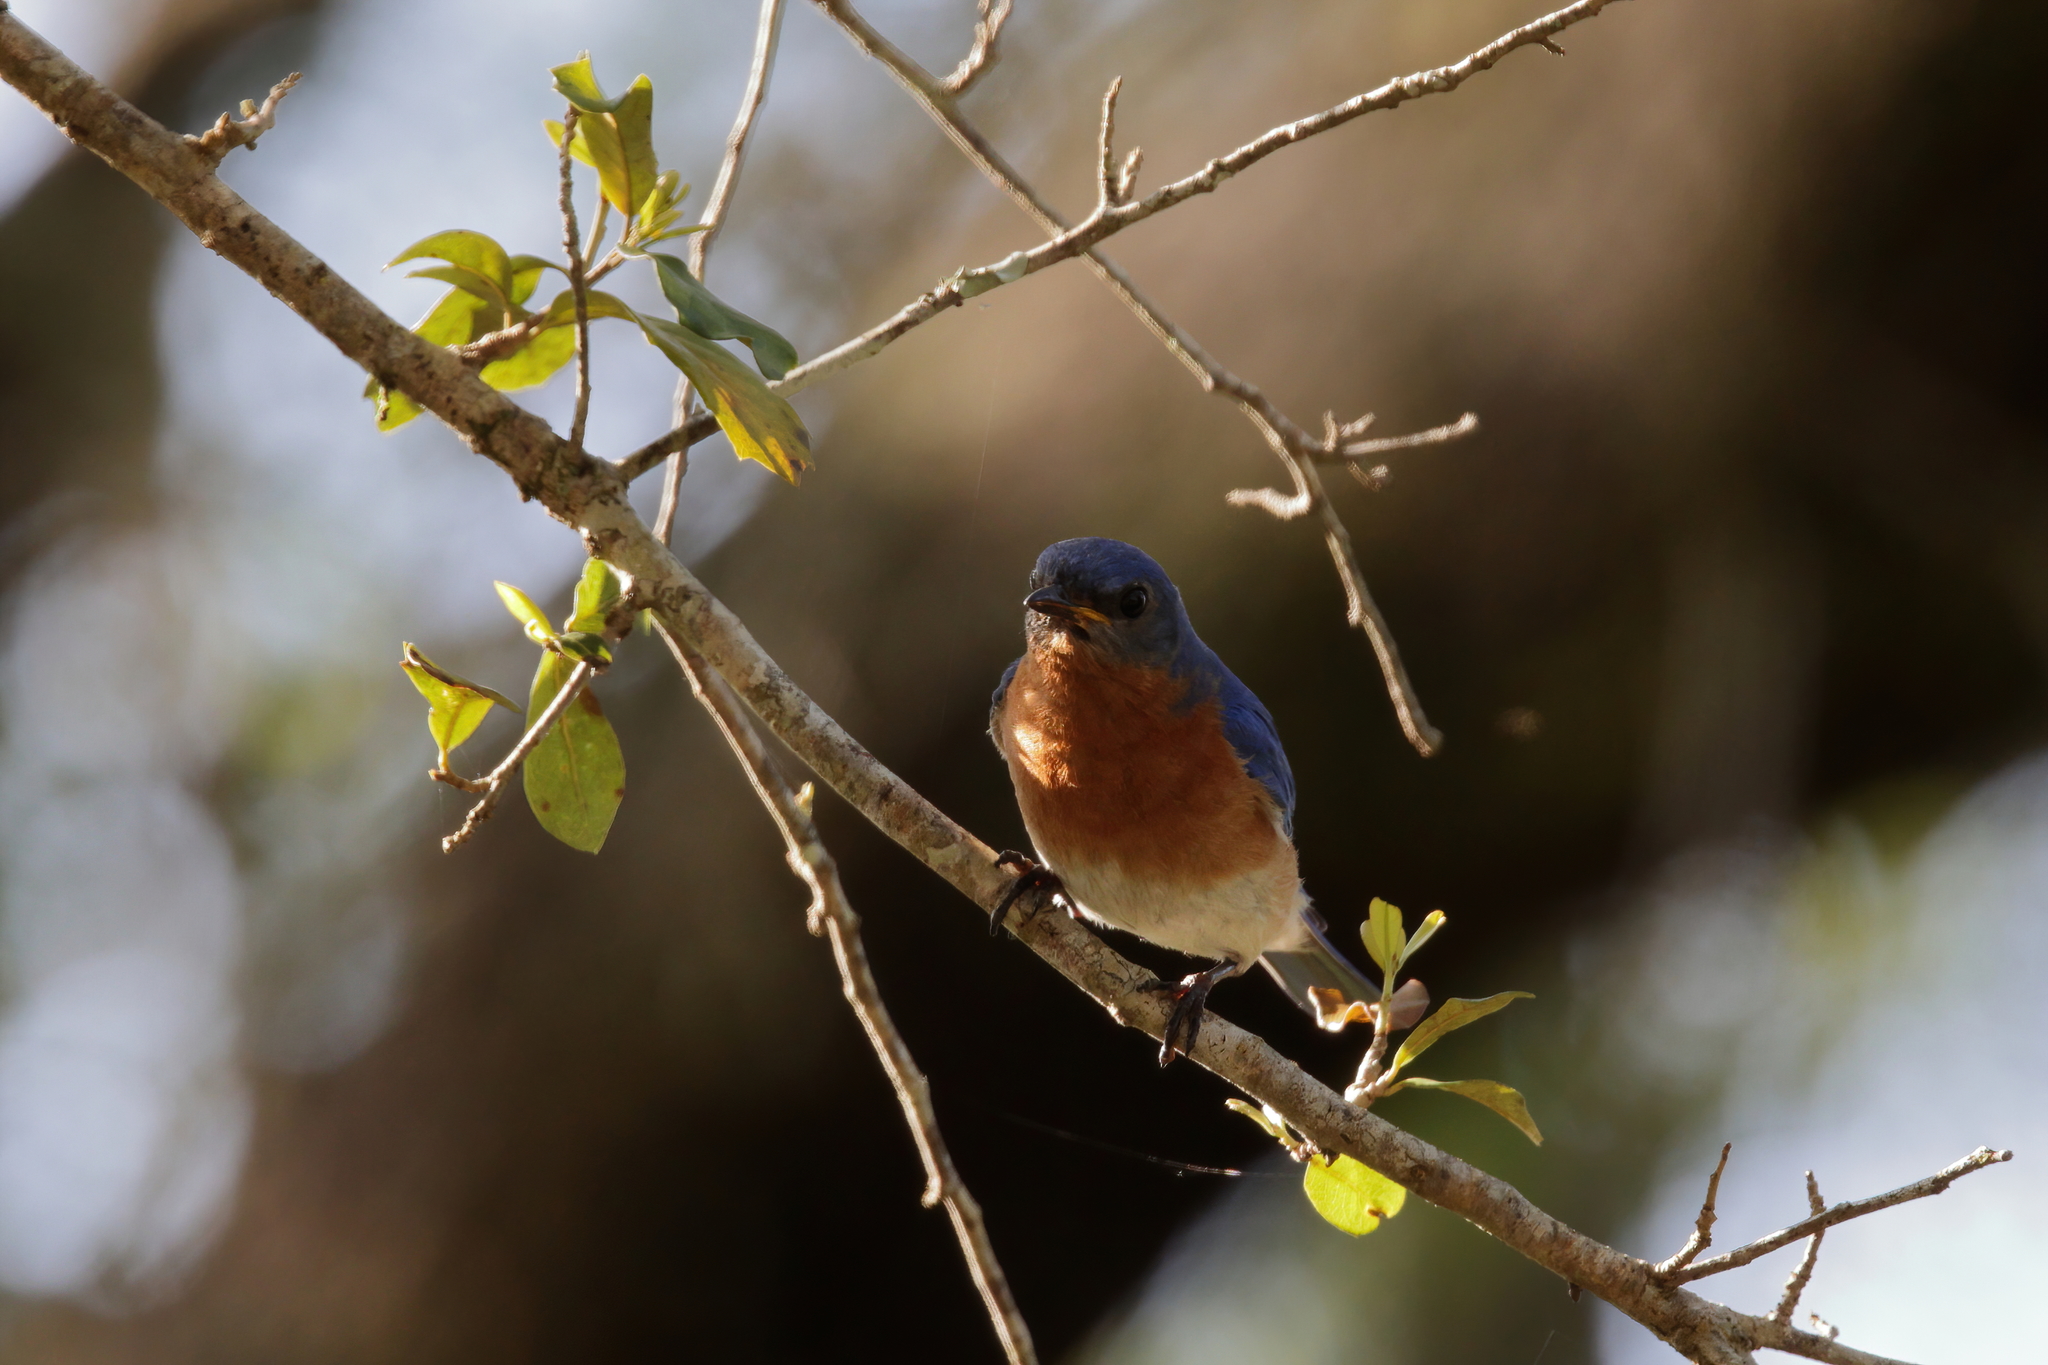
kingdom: Animalia
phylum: Chordata
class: Aves
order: Passeriformes
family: Turdidae
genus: Sialia
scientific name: Sialia sialis
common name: Eastern bluebird
